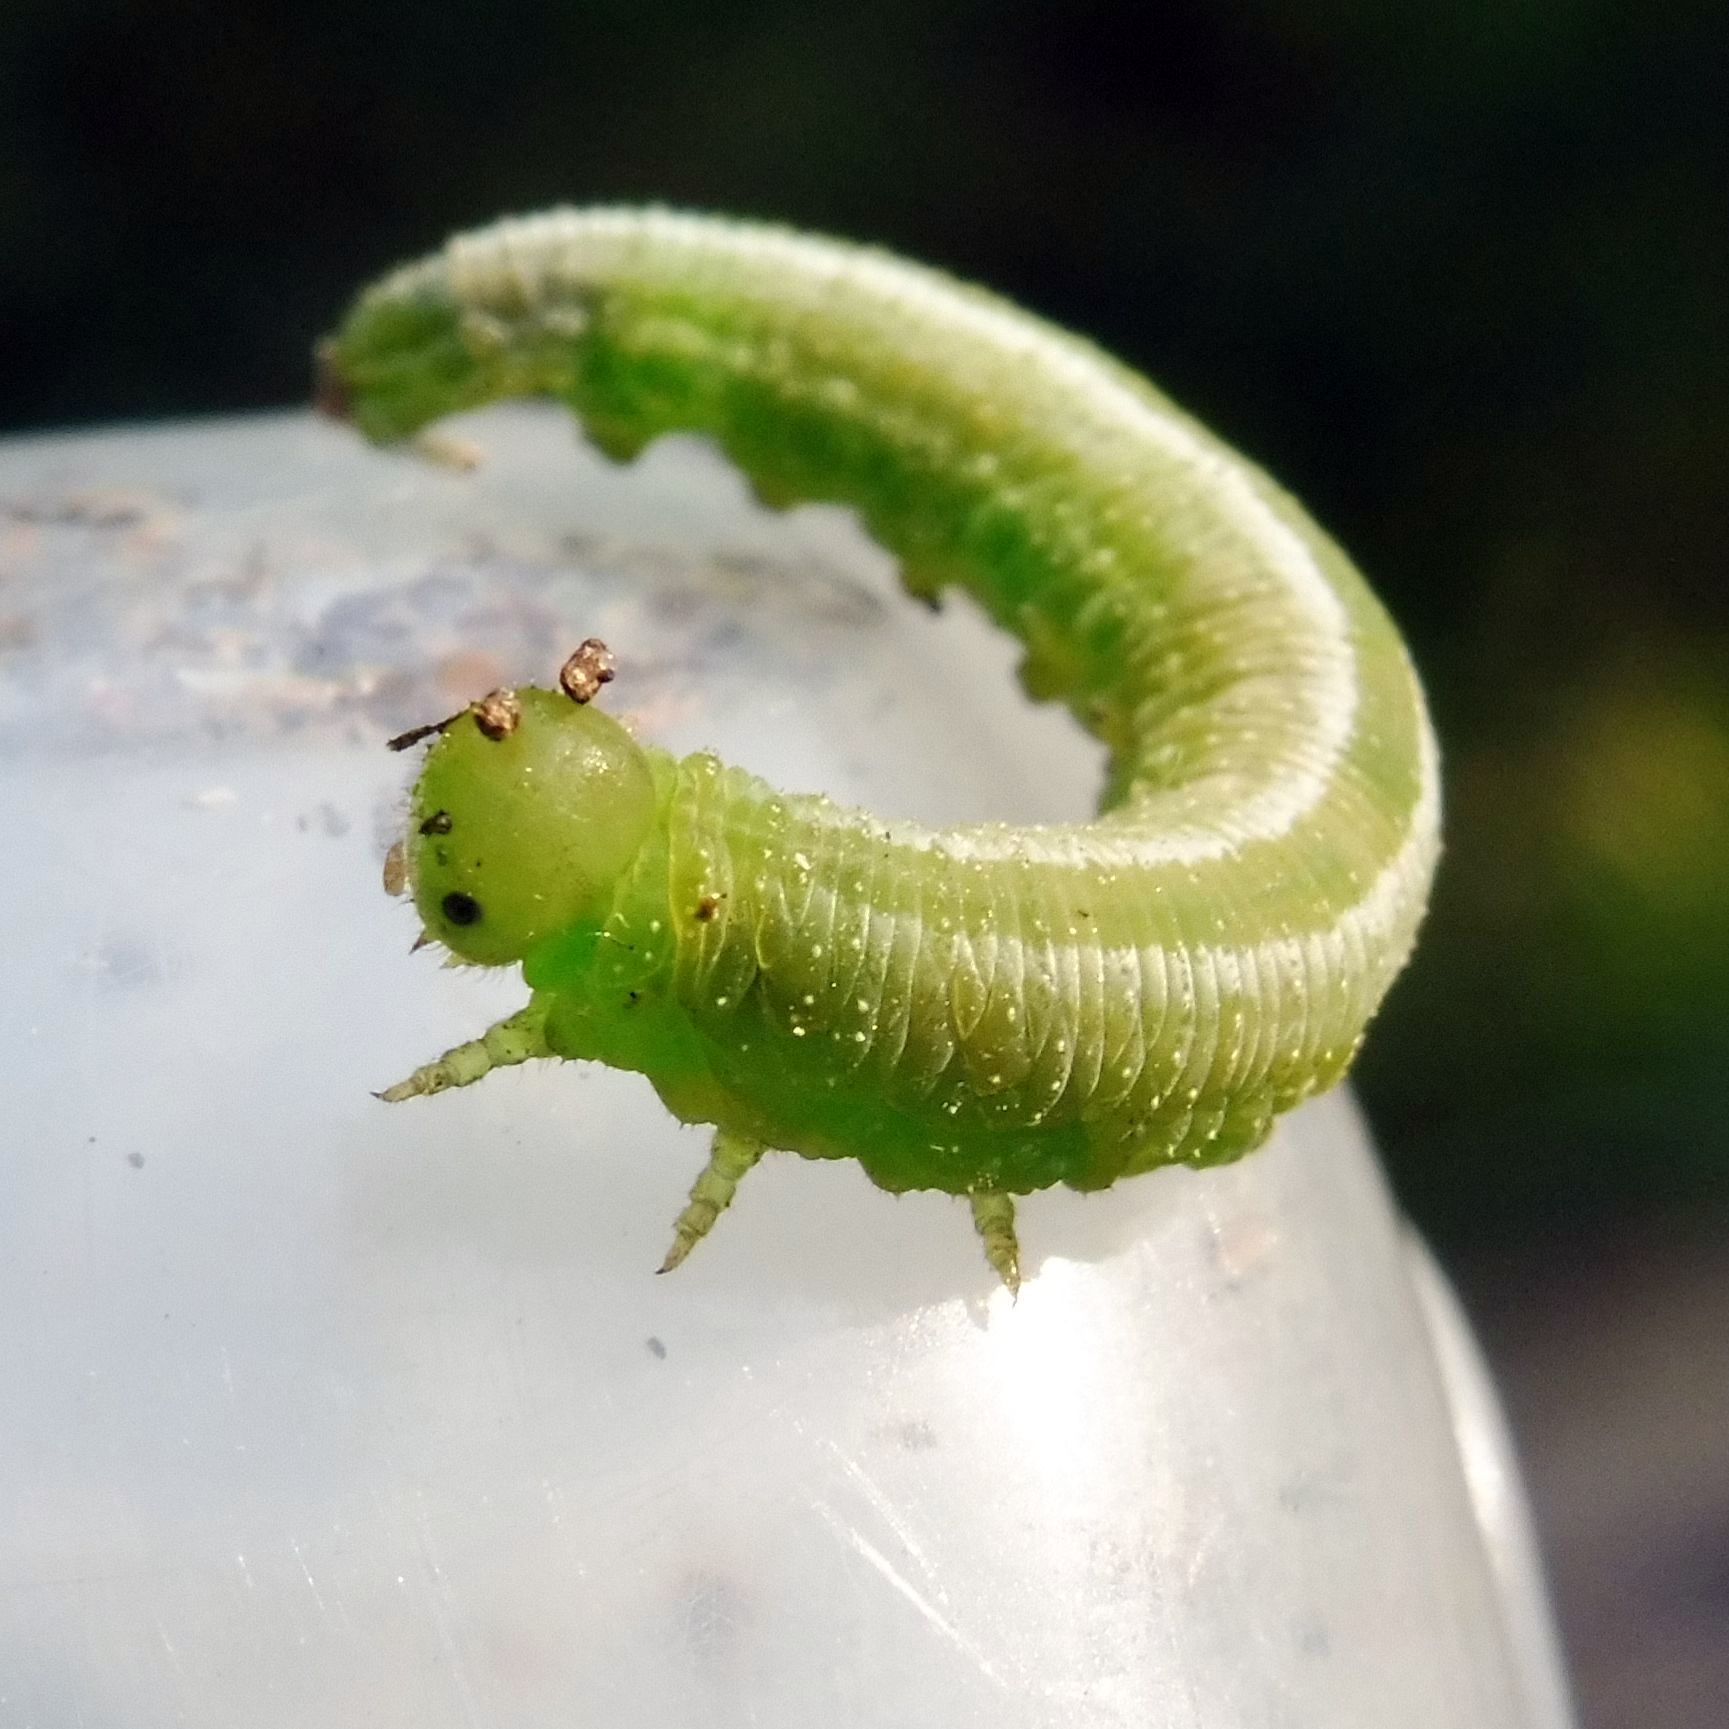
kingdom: Animalia
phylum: Arthropoda
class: Insecta
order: Hymenoptera
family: Tenthredinidae
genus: Tenthredopsis
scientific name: Tenthredopsis friesei
